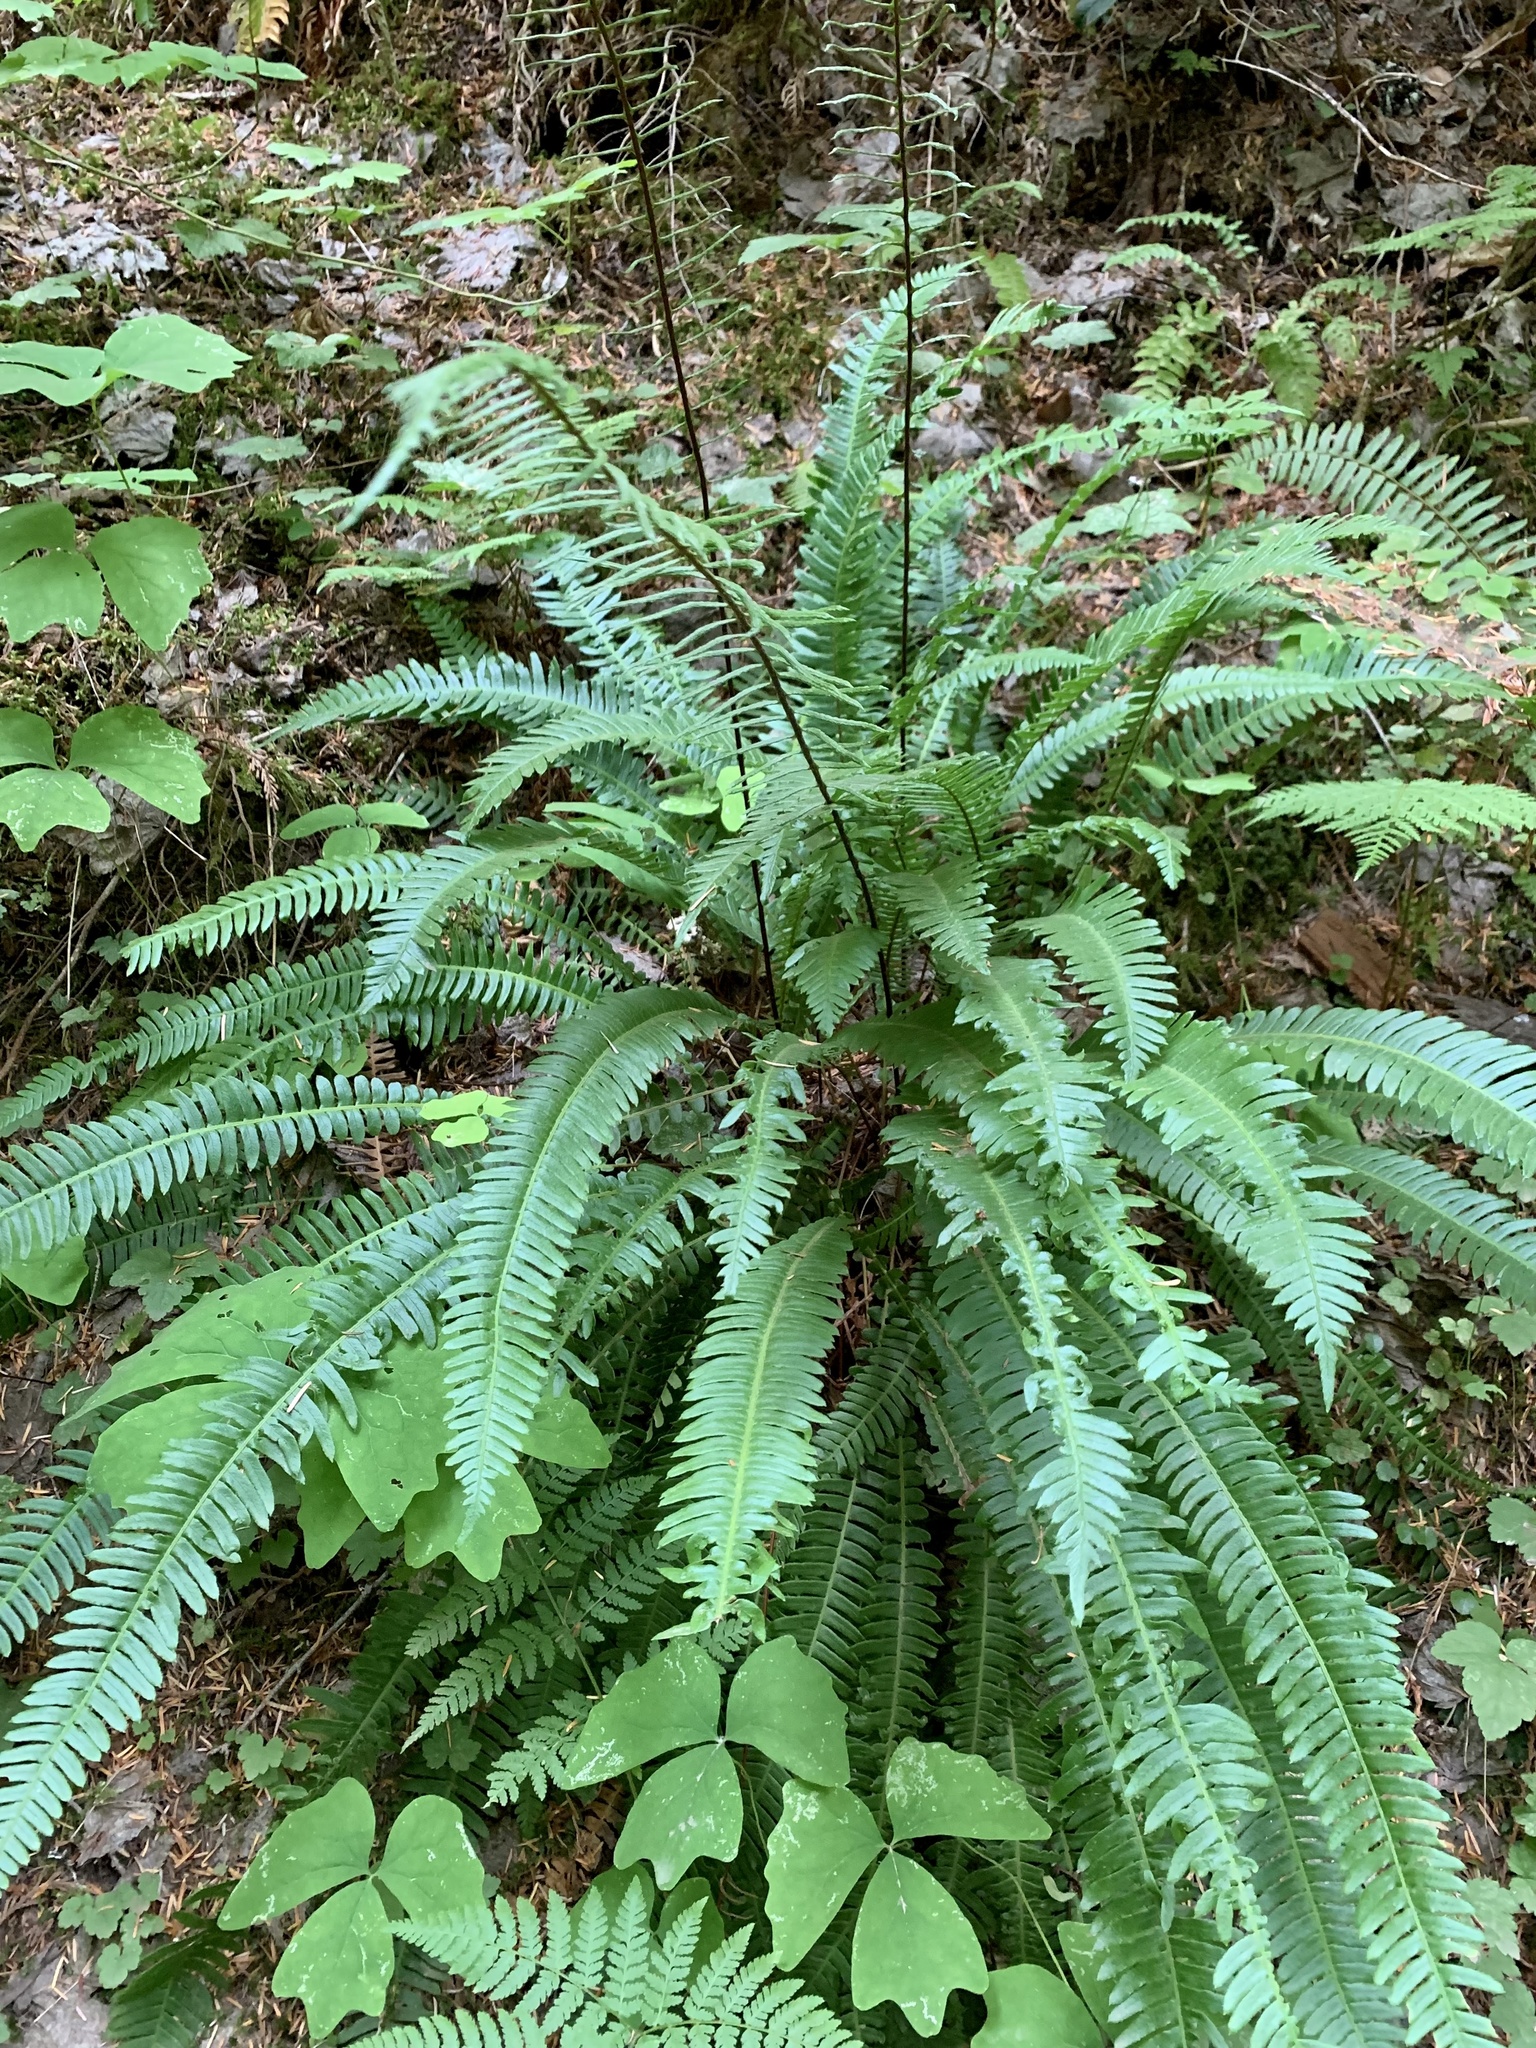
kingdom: Plantae
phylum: Tracheophyta
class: Polypodiopsida
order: Polypodiales
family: Blechnaceae
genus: Struthiopteris
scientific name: Struthiopteris spicant
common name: Deer fern
